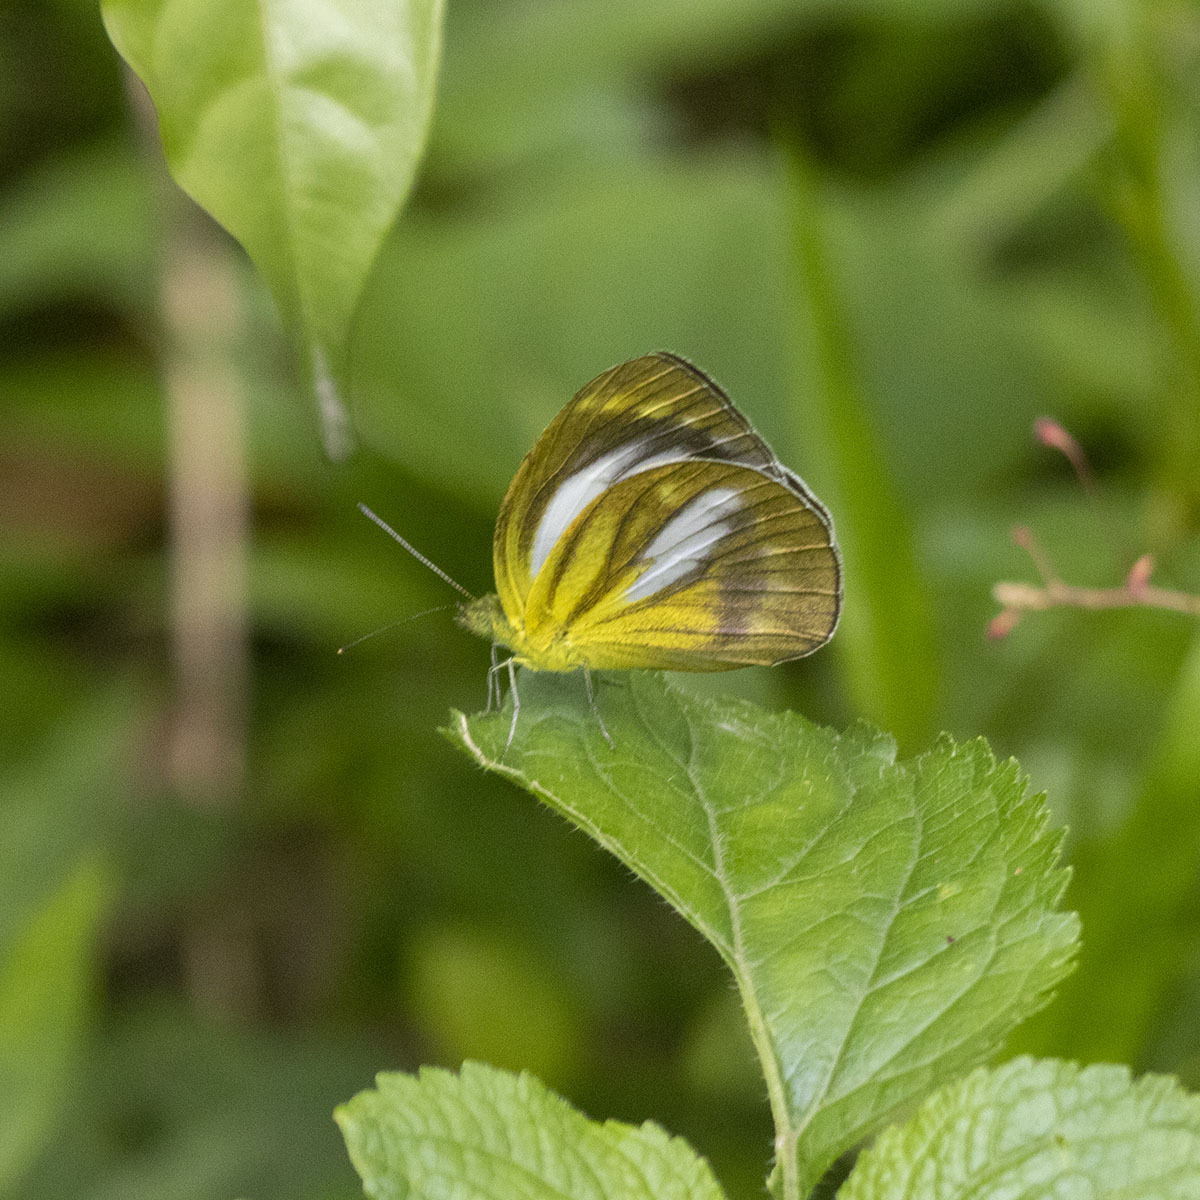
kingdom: Animalia
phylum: Arthropoda
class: Insecta
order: Lepidoptera
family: Pieridae
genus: Cepora
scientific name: Cepora nadina
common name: Lesser gull
